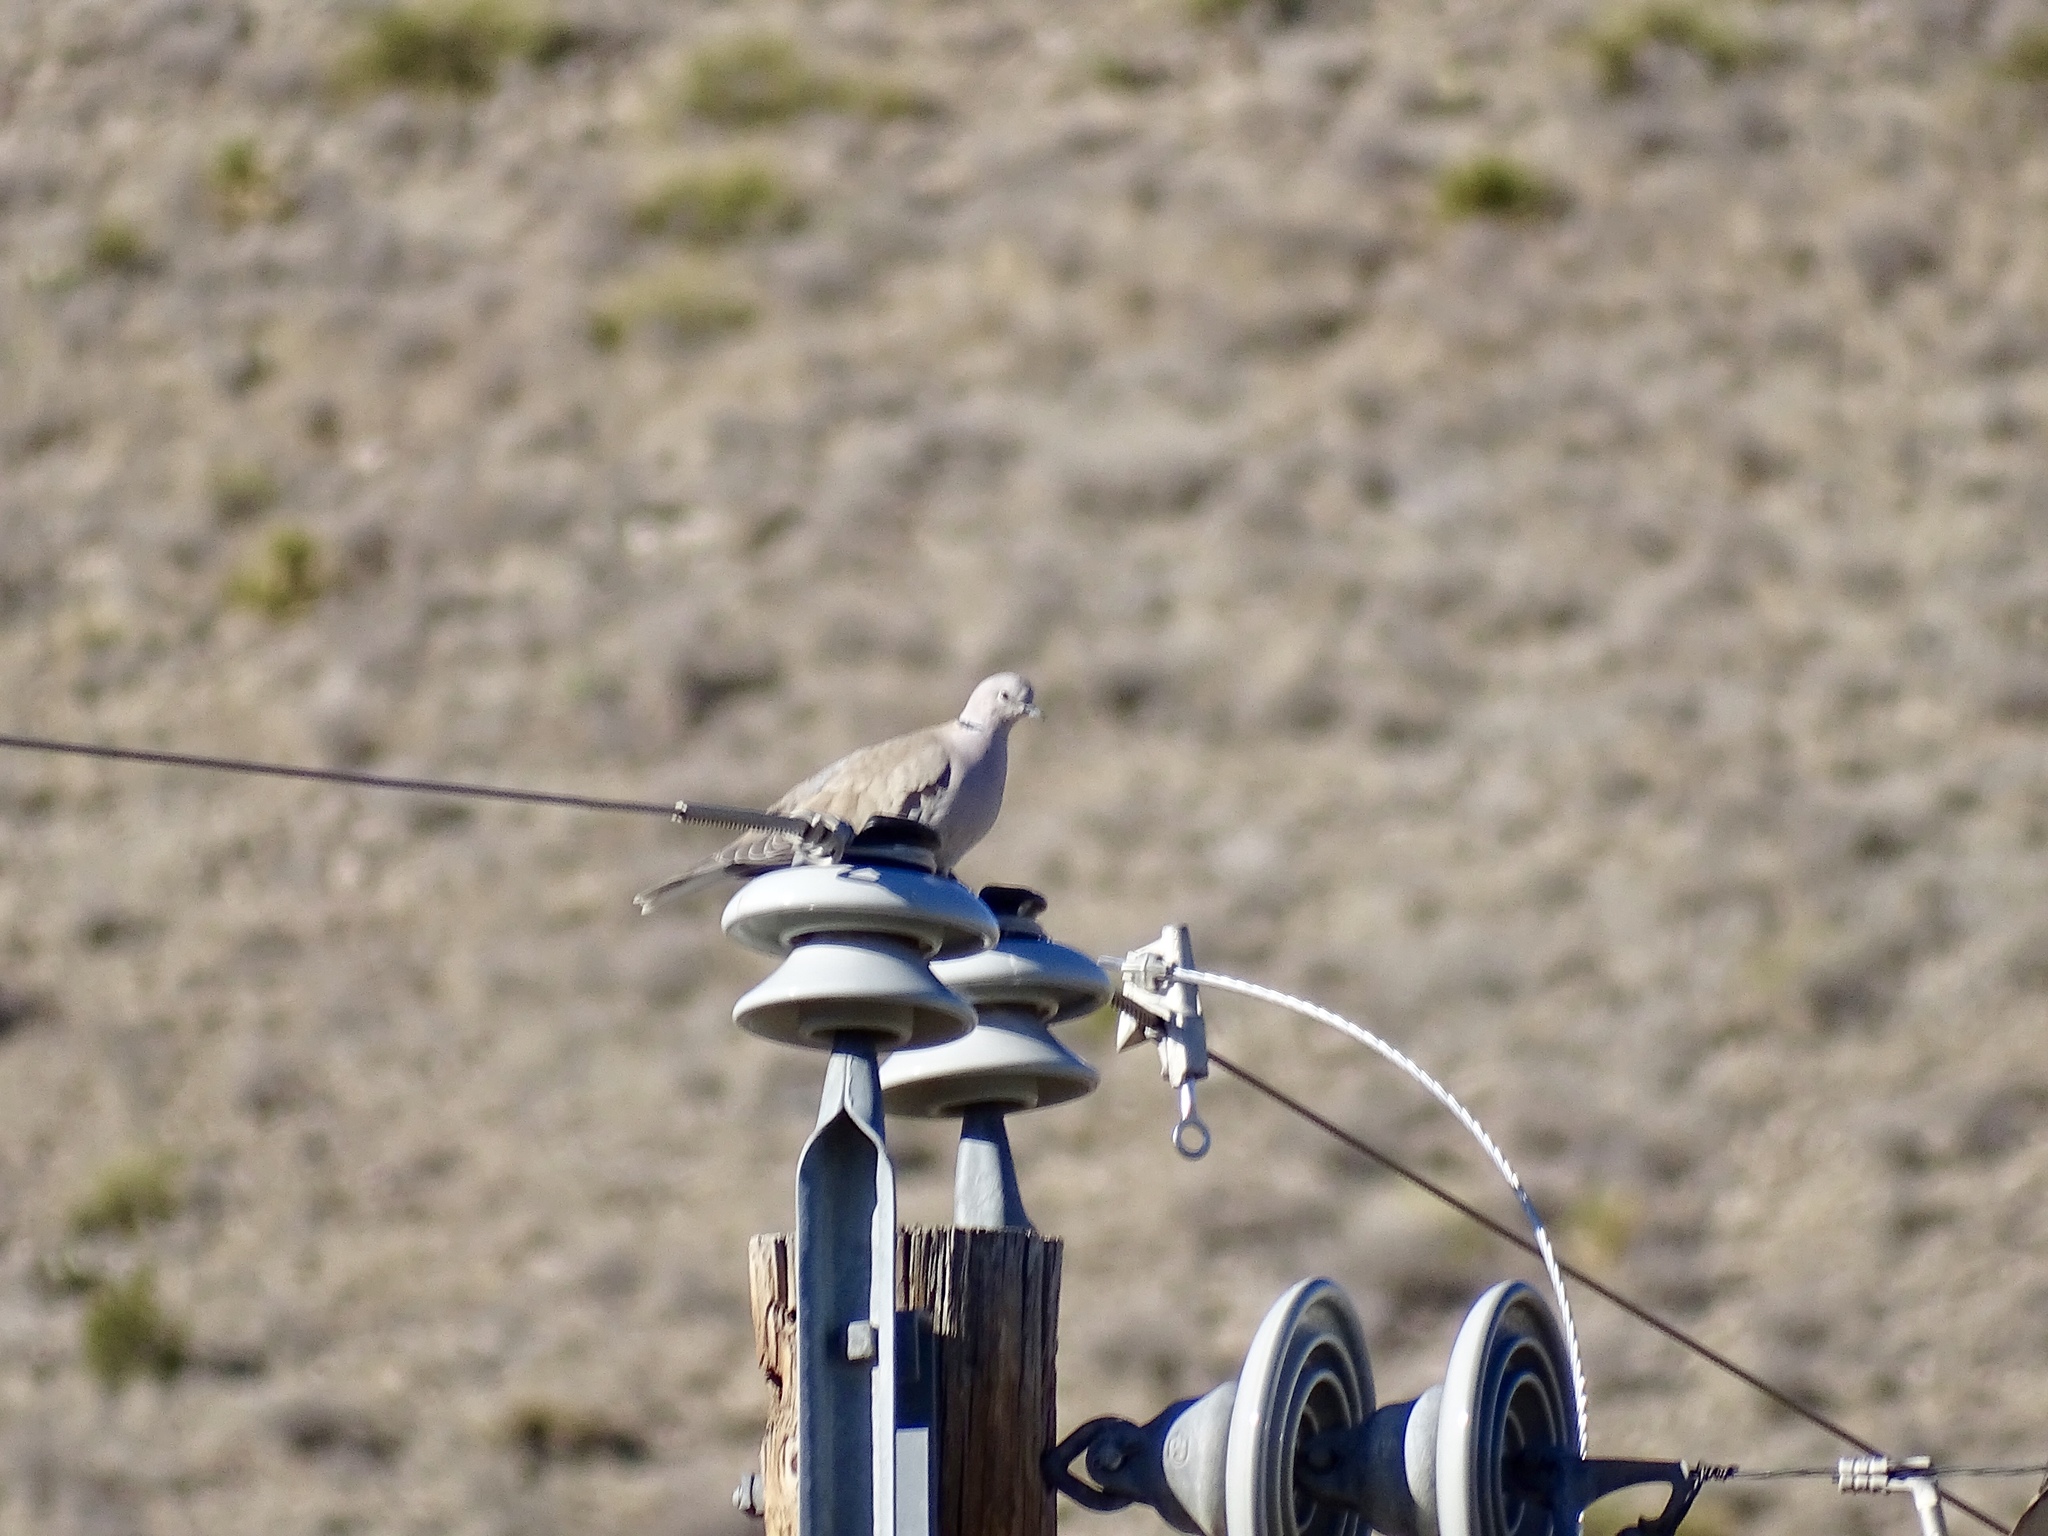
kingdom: Animalia
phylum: Chordata
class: Aves
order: Columbiformes
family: Columbidae
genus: Streptopelia
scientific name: Streptopelia decaocto
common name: Eurasian collared dove
